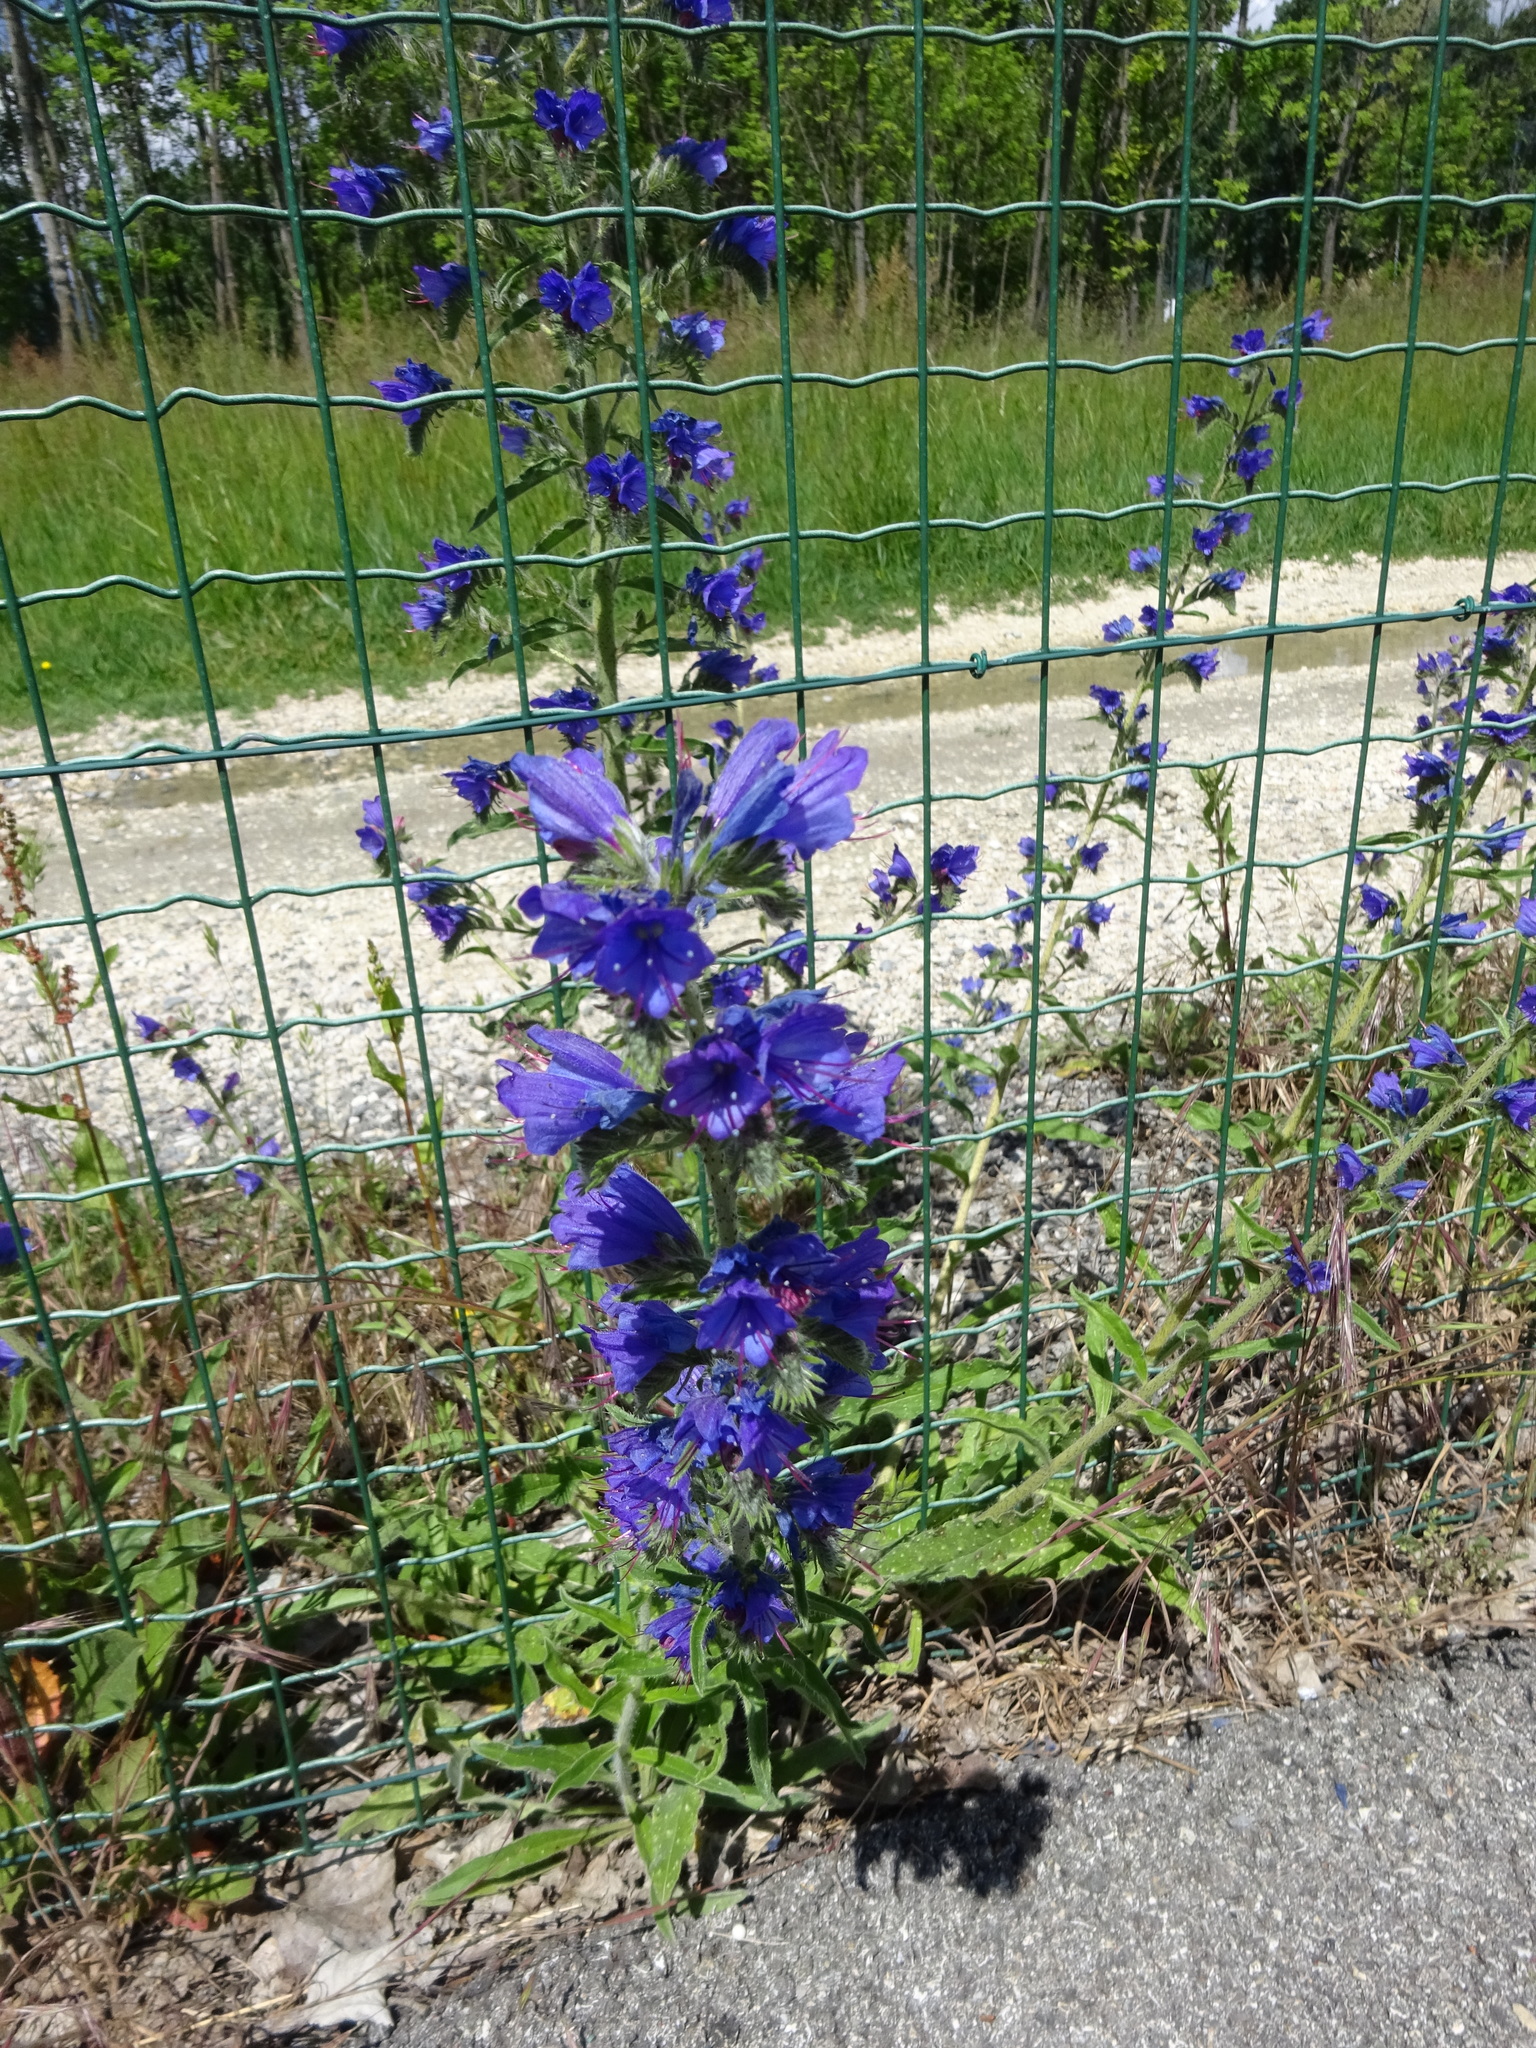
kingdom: Plantae
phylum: Tracheophyta
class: Magnoliopsida
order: Boraginales
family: Boraginaceae
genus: Echium
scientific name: Echium vulgare
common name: Common viper's bugloss
